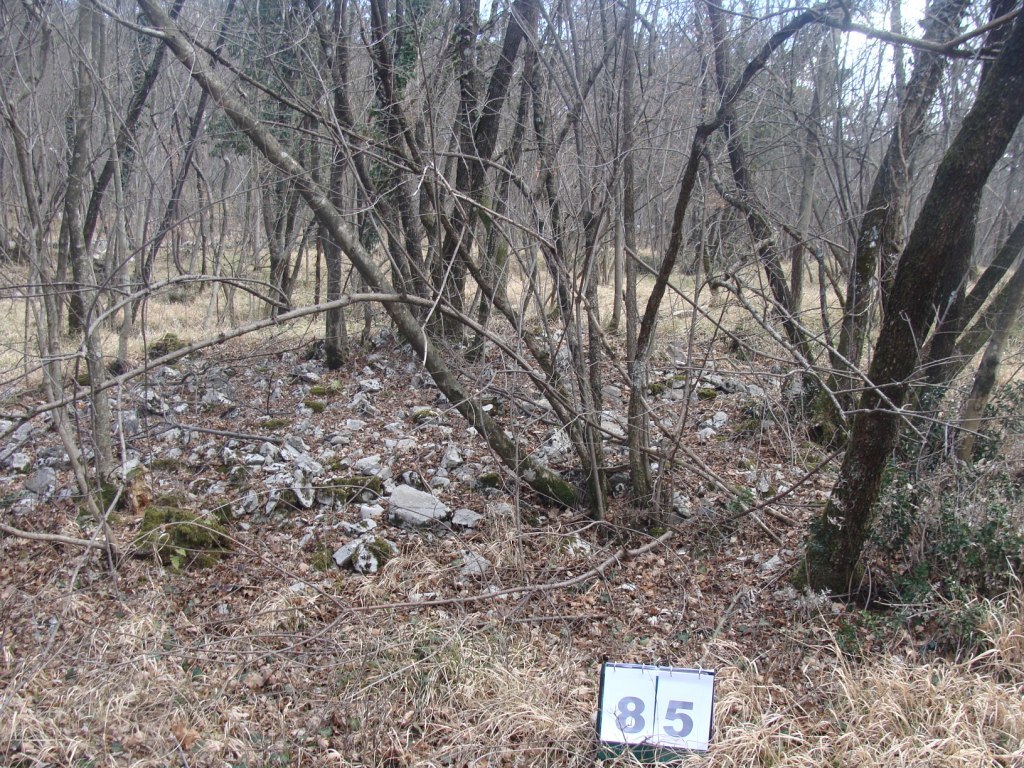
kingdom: Plantae
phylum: Tracheophyta
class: Magnoliopsida
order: Cornales
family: Cornaceae
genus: Cornus
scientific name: Cornus mas
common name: Cornelian-cherry
